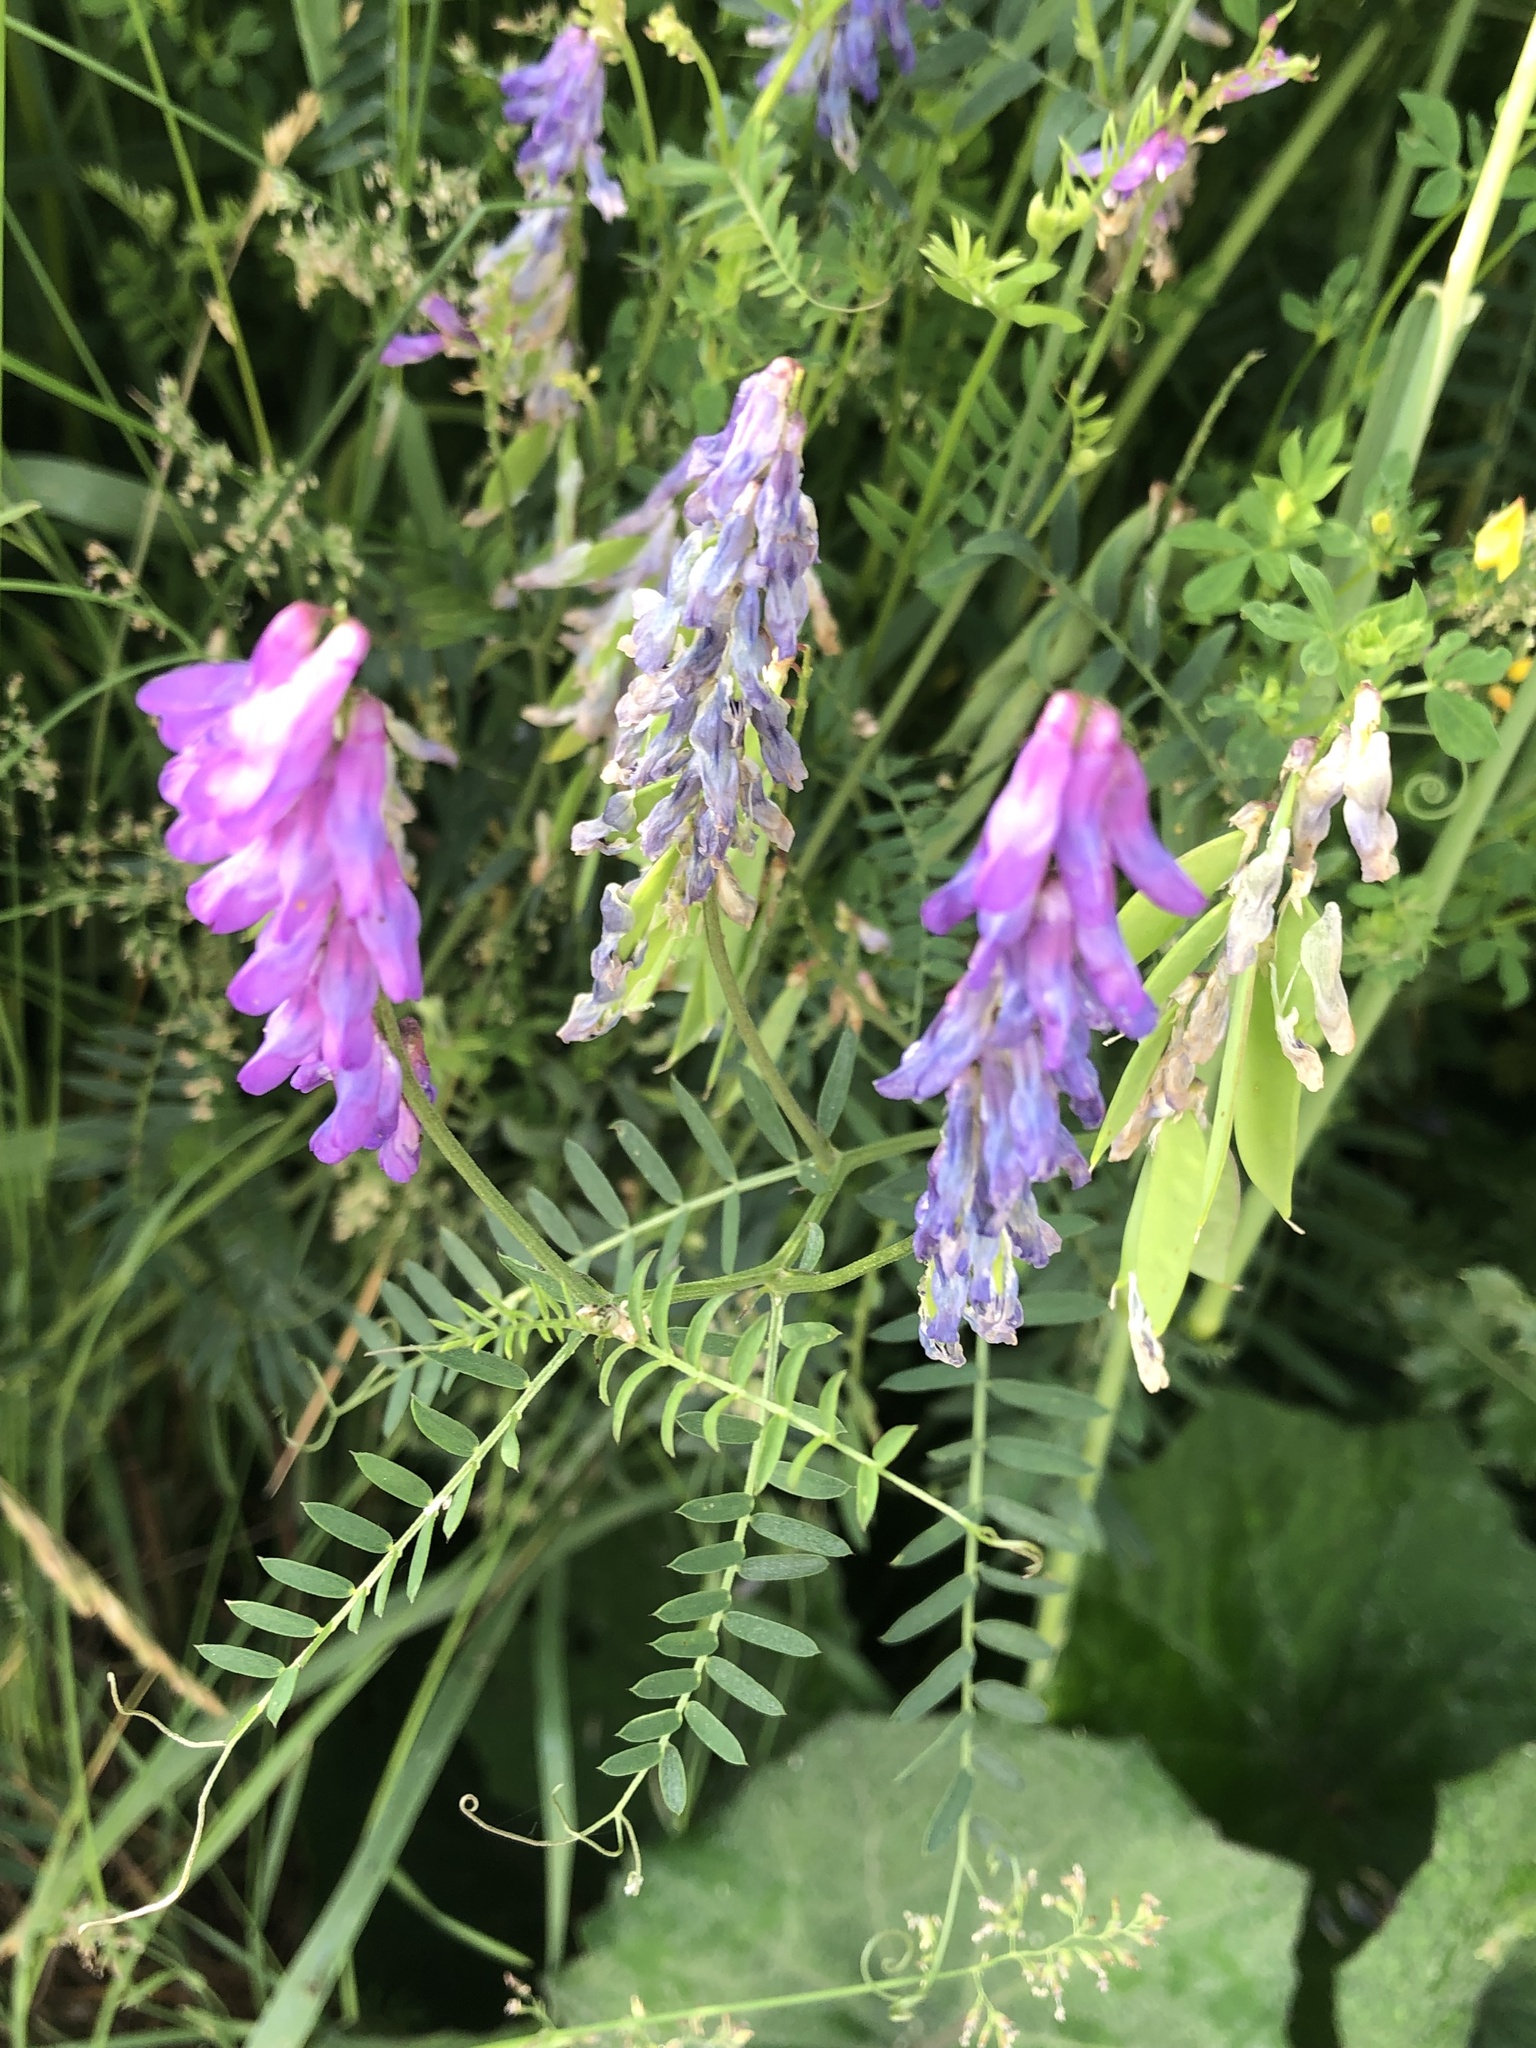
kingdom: Plantae
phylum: Tracheophyta
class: Magnoliopsida
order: Fabales
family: Fabaceae
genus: Vicia
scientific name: Vicia cracca
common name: Bird vetch
